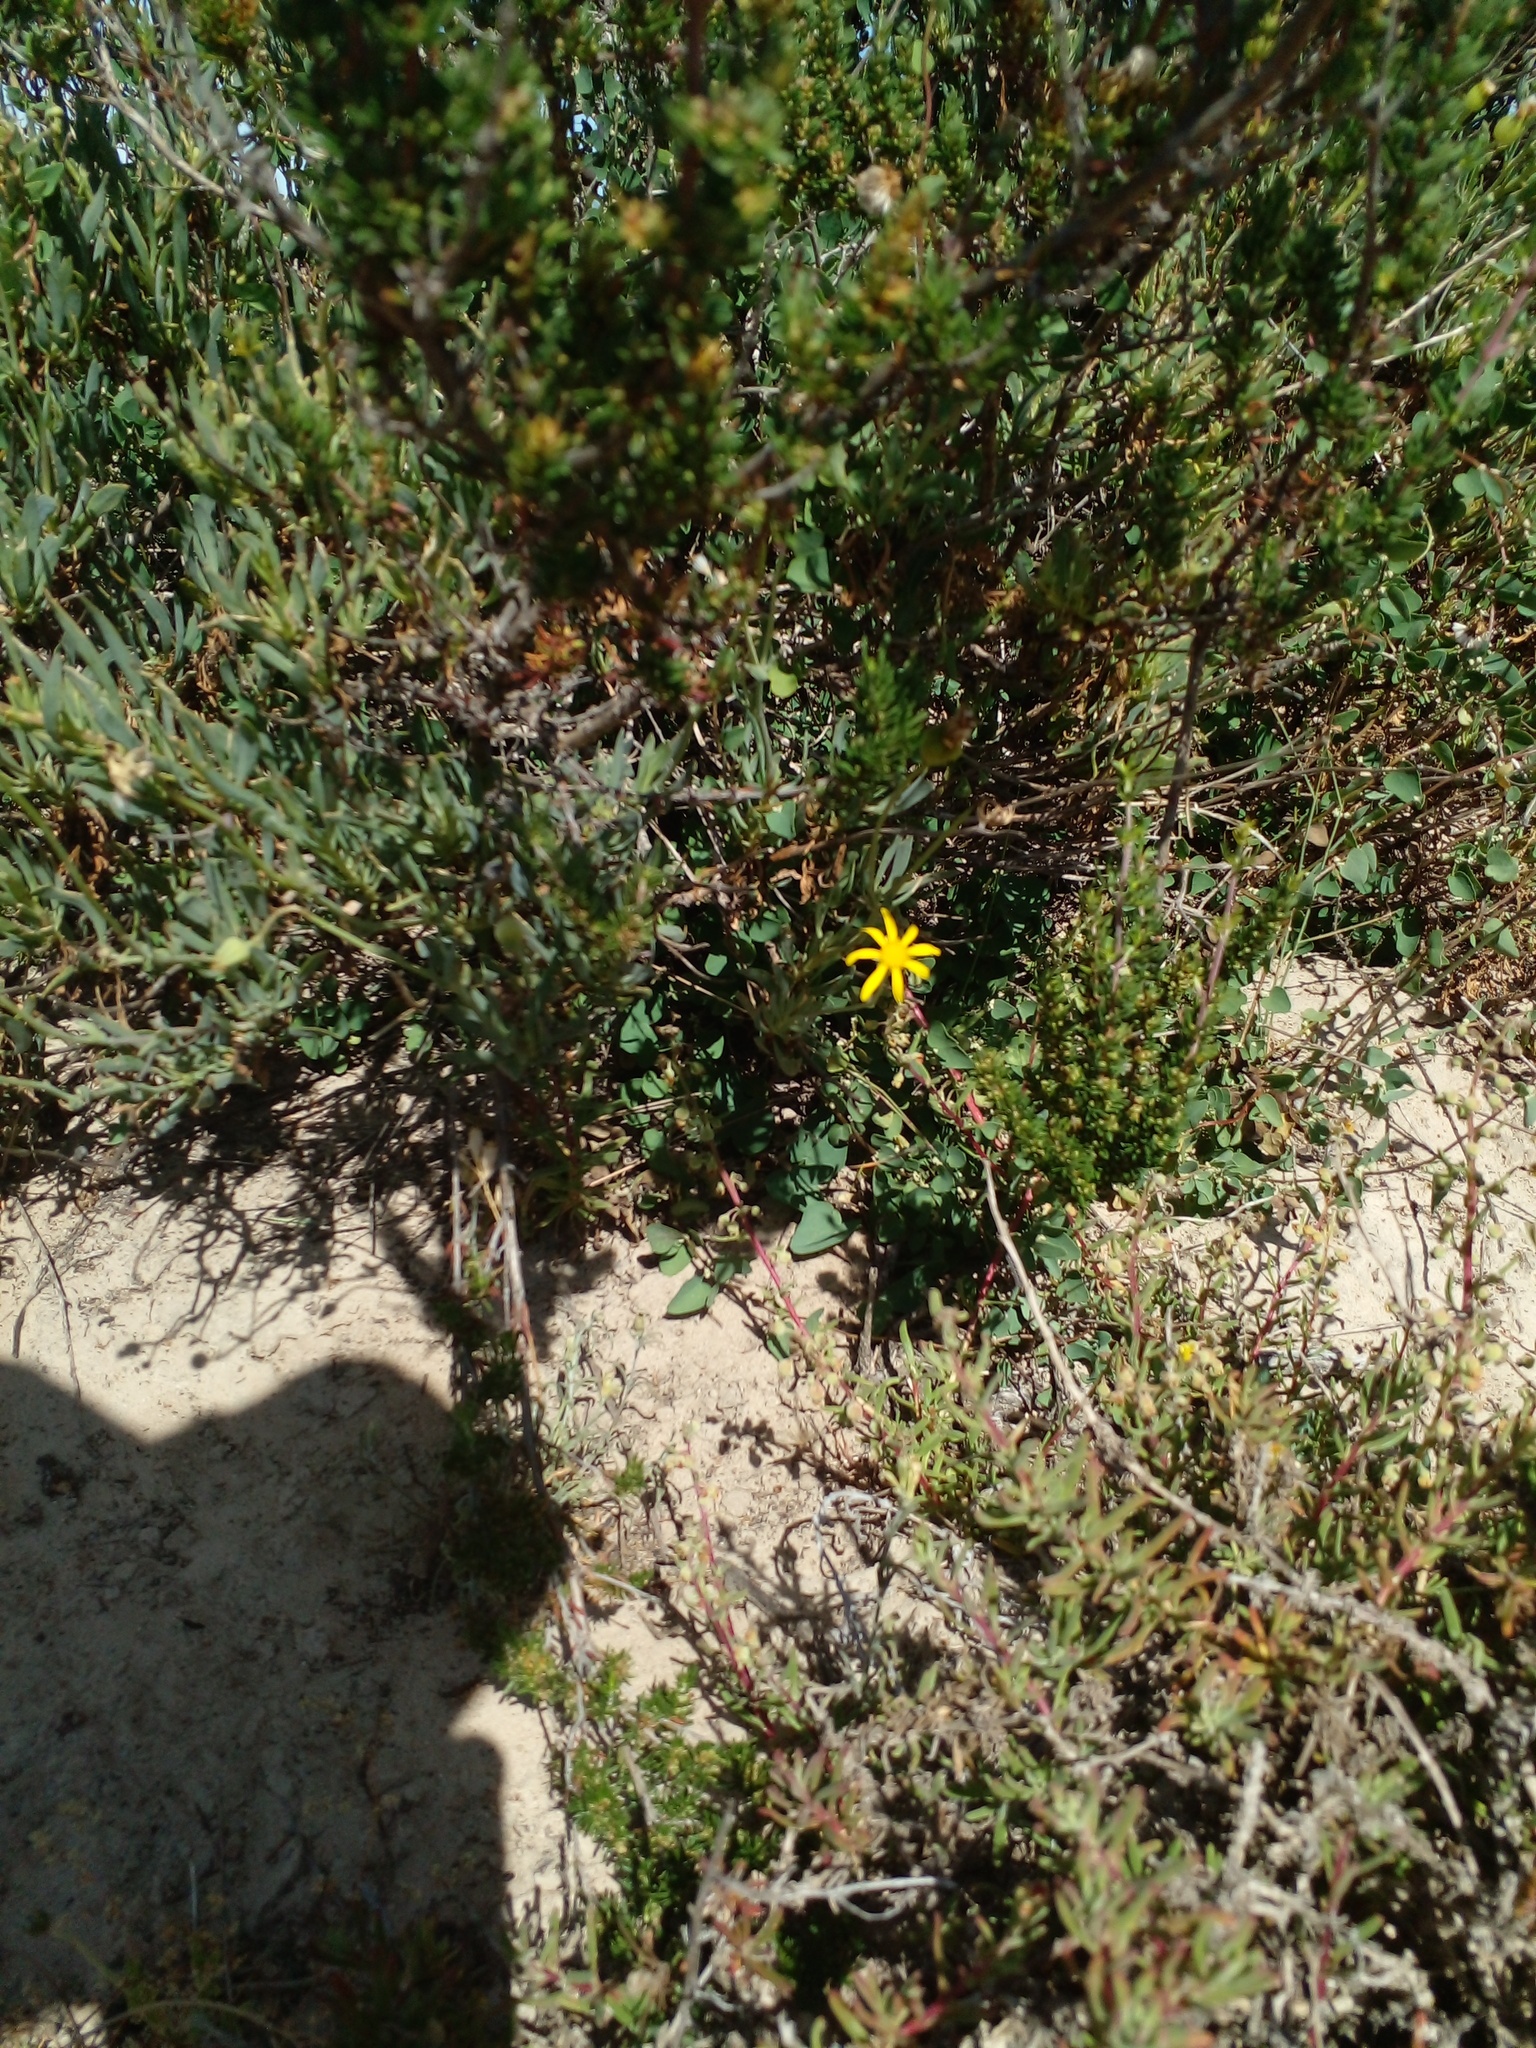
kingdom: Plantae
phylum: Tracheophyta
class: Magnoliopsida
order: Asterales
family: Asteraceae
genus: Othonna
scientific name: Othonna coronopifolia
